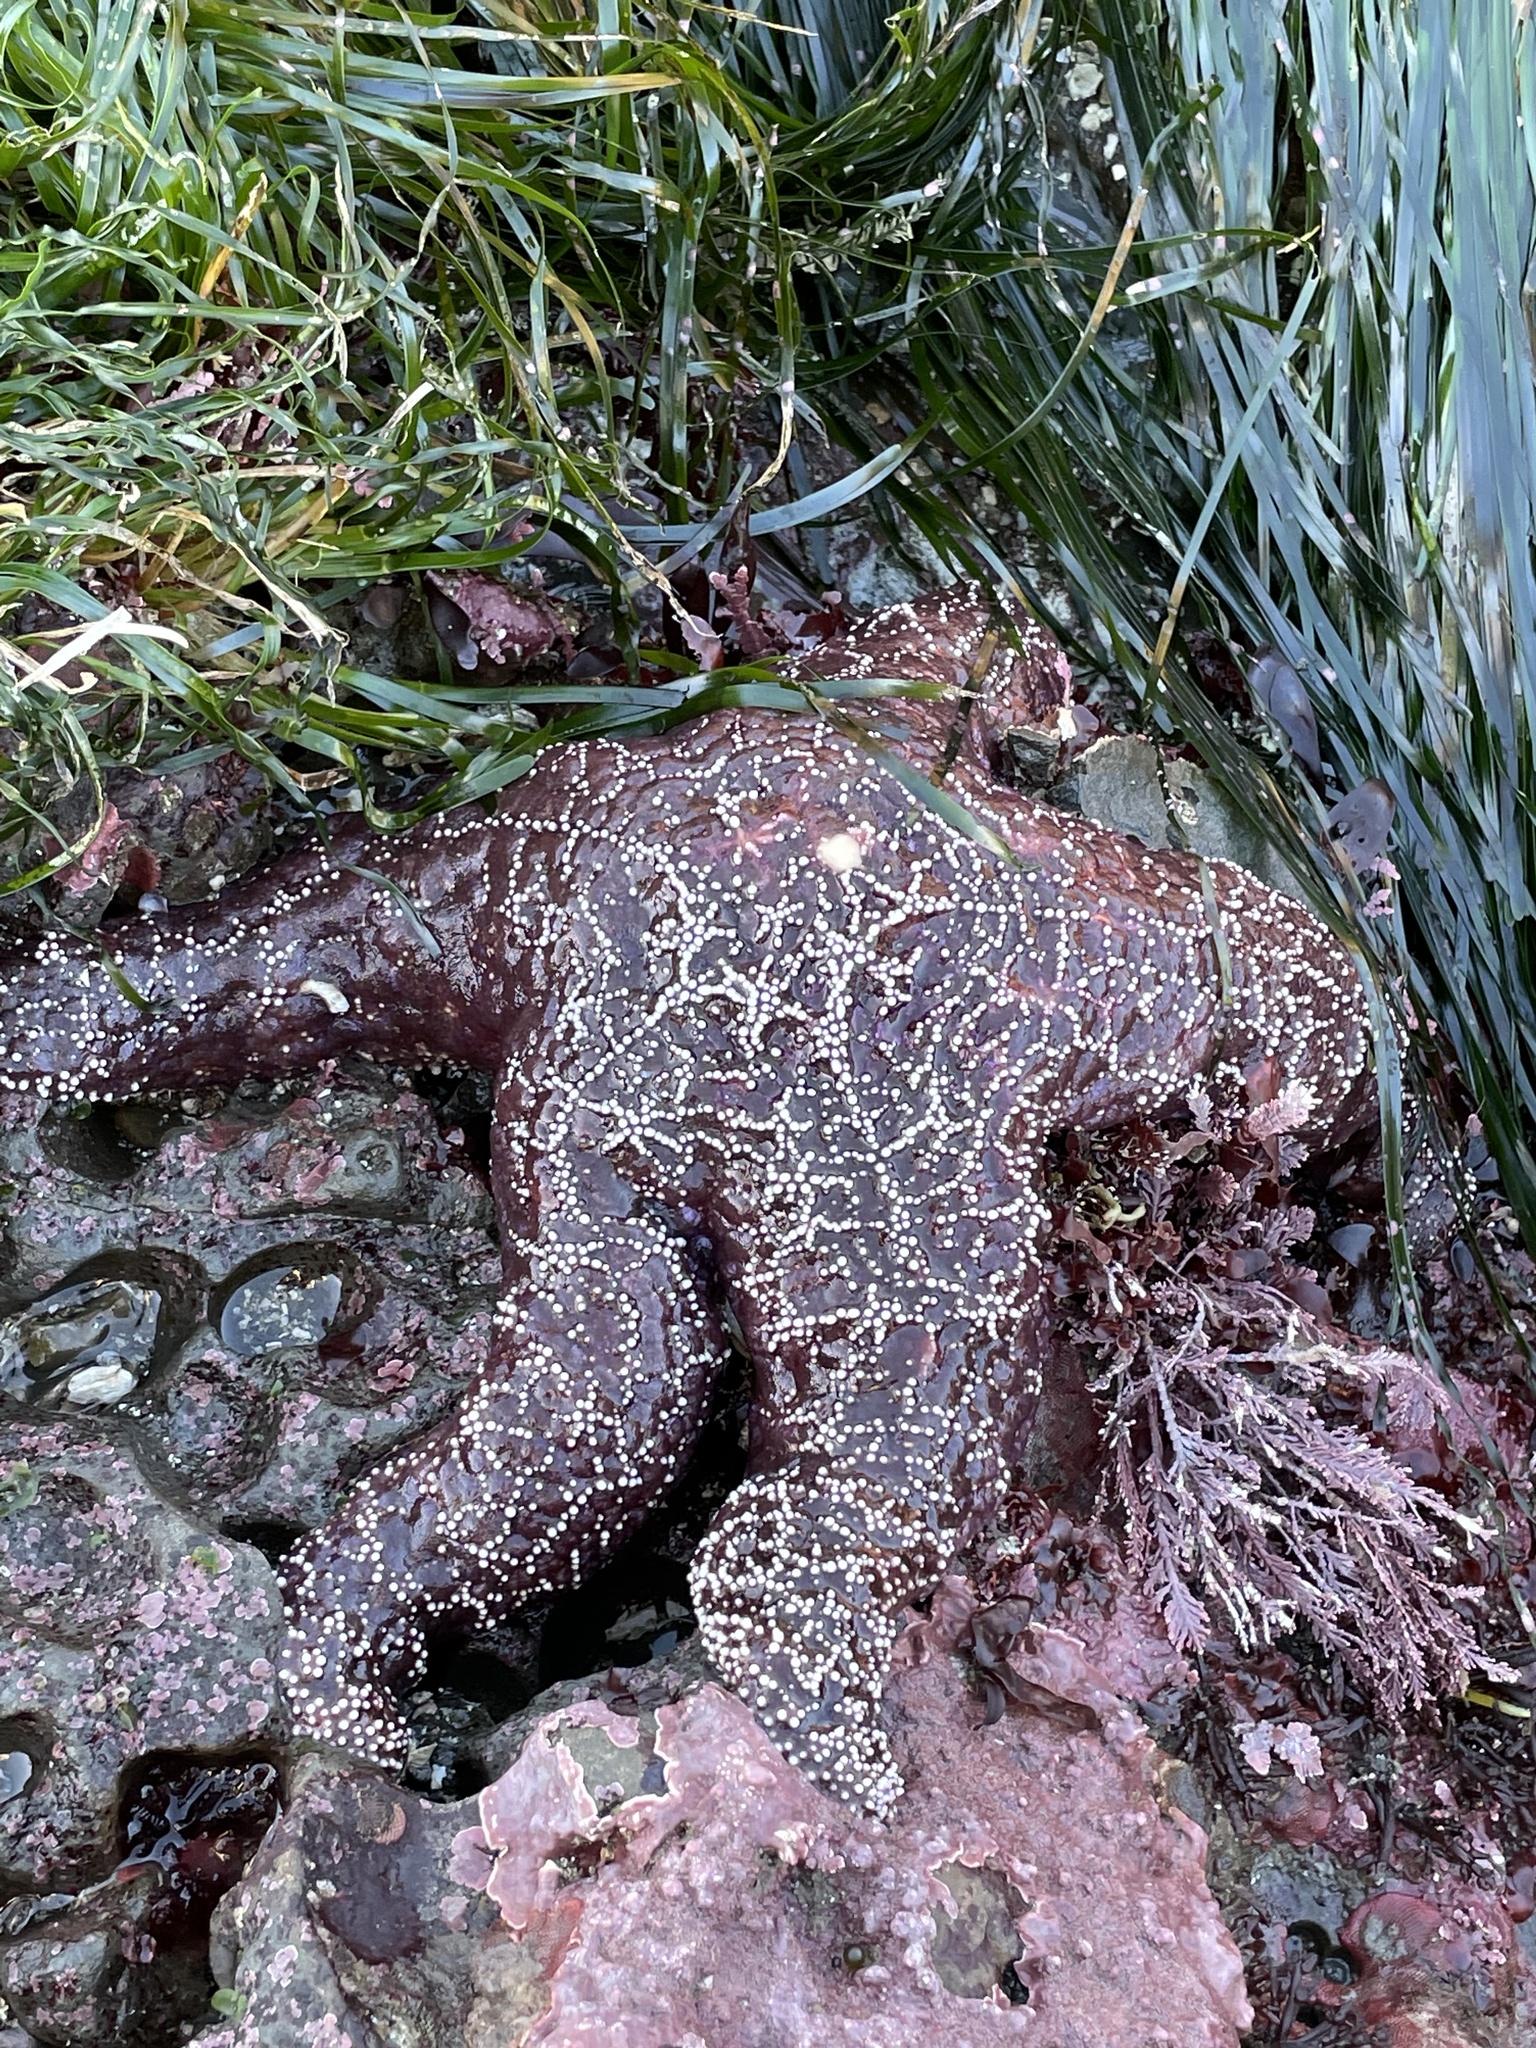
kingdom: Animalia
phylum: Echinodermata
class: Asteroidea
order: Forcipulatida
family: Asteriidae
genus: Pisaster
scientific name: Pisaster ochraceus
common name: Ochre stars
